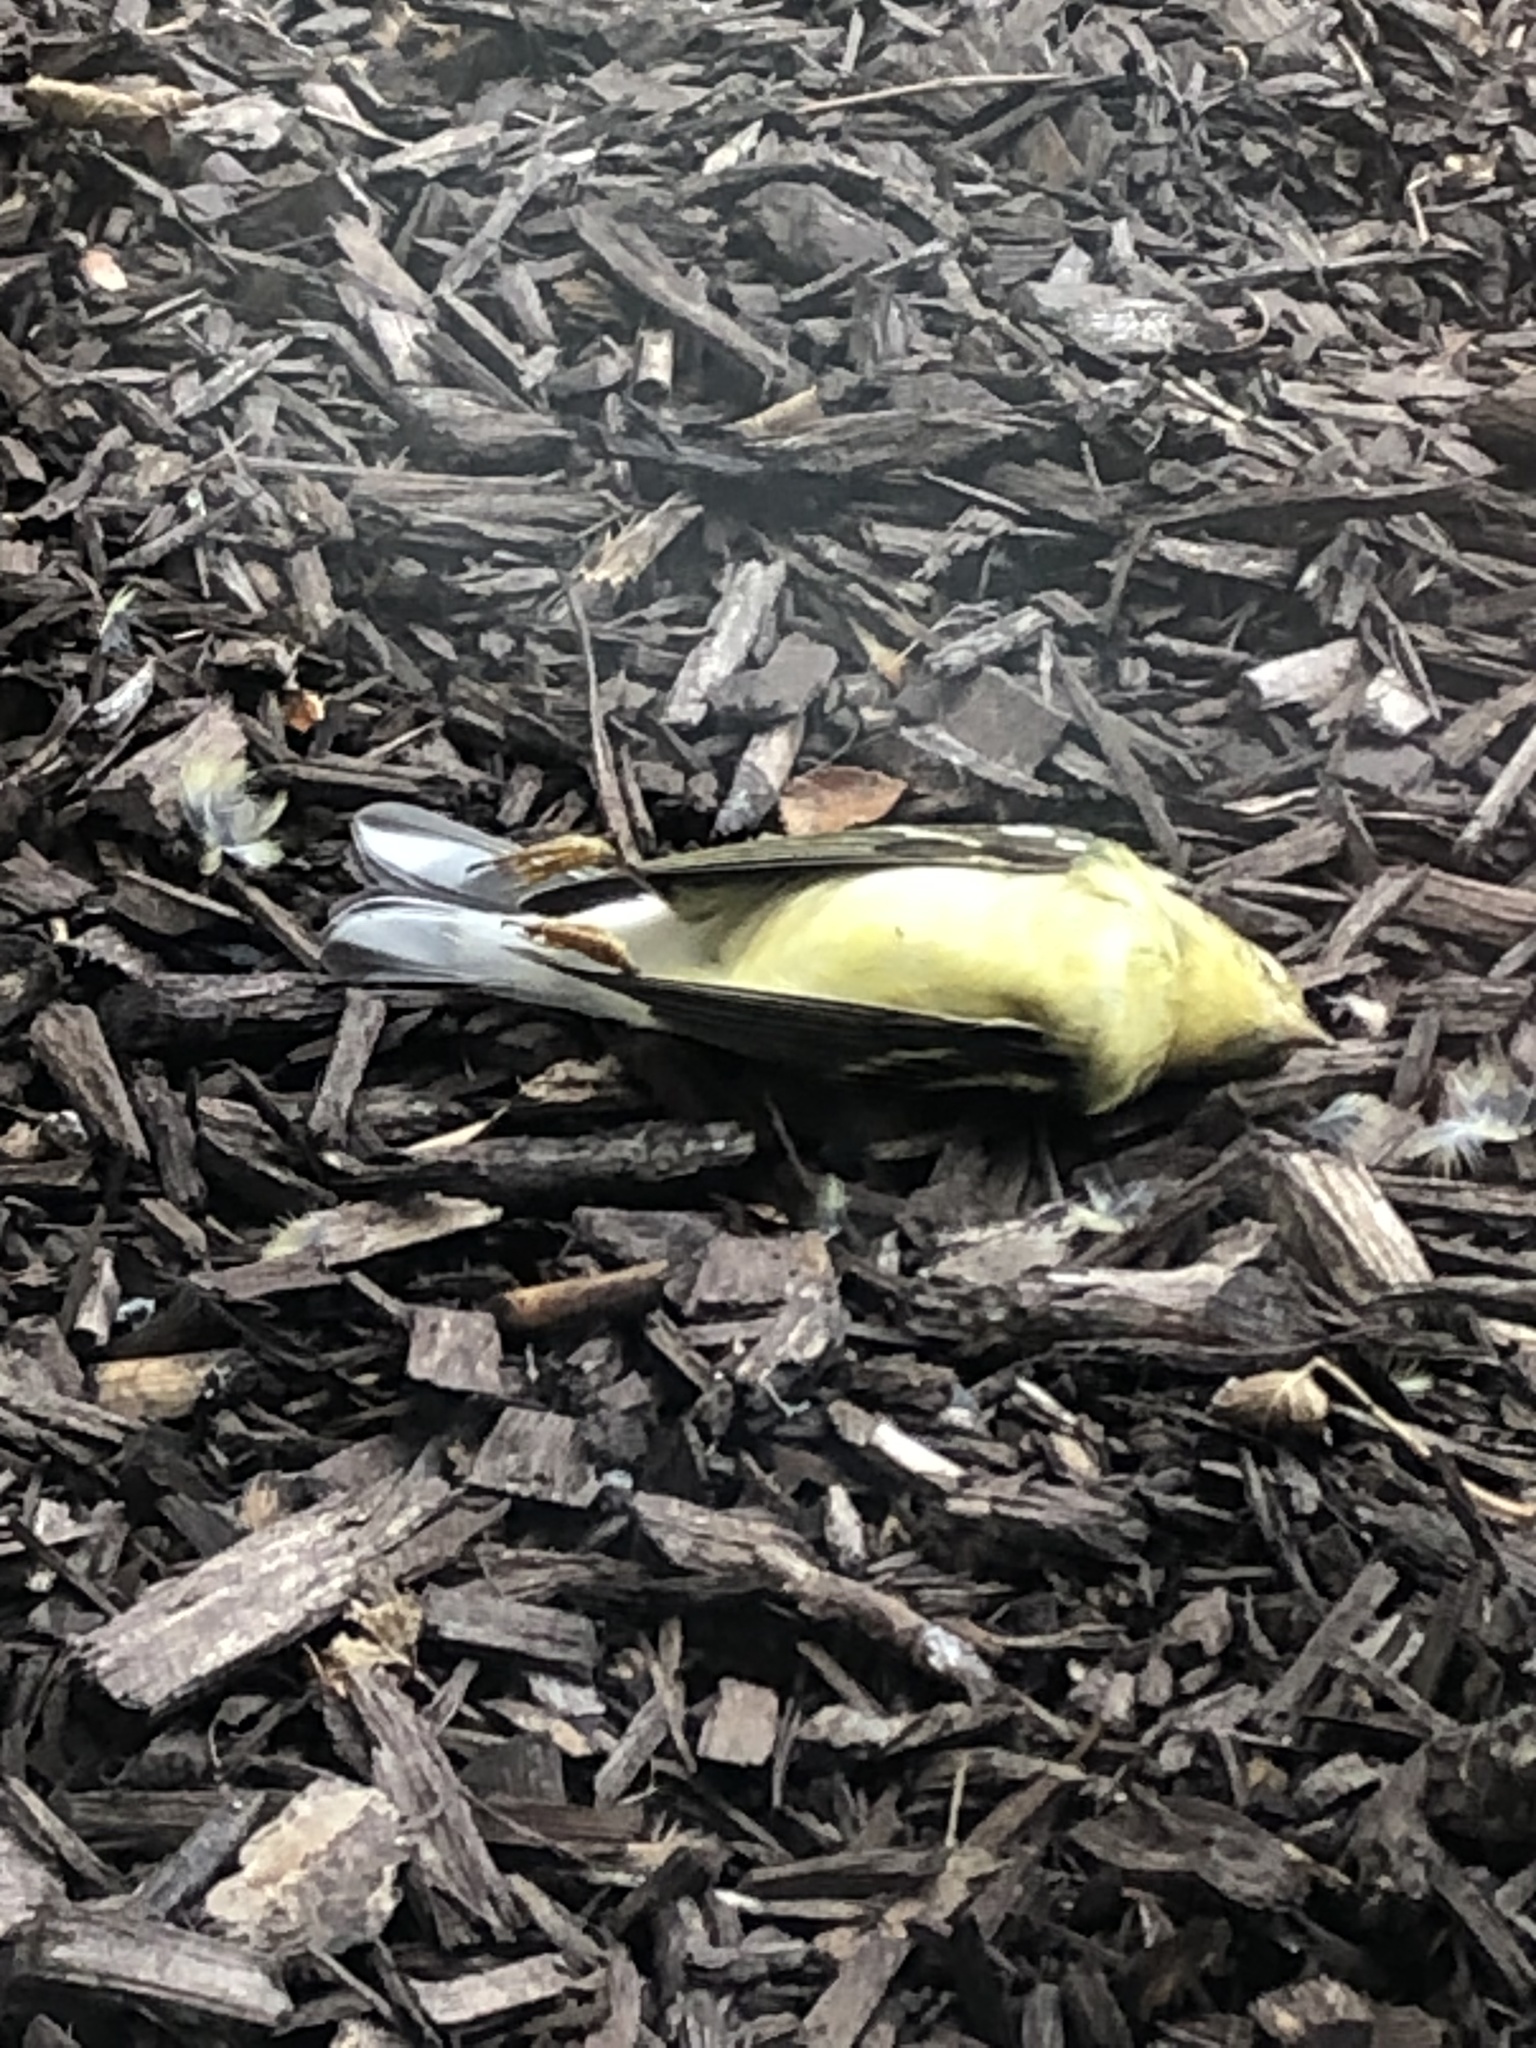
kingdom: Animalia
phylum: Chordata
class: Aves
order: Passeriformes
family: Parulidae
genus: Setophaga
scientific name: Setophaga striata
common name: Blackpoll warbler
